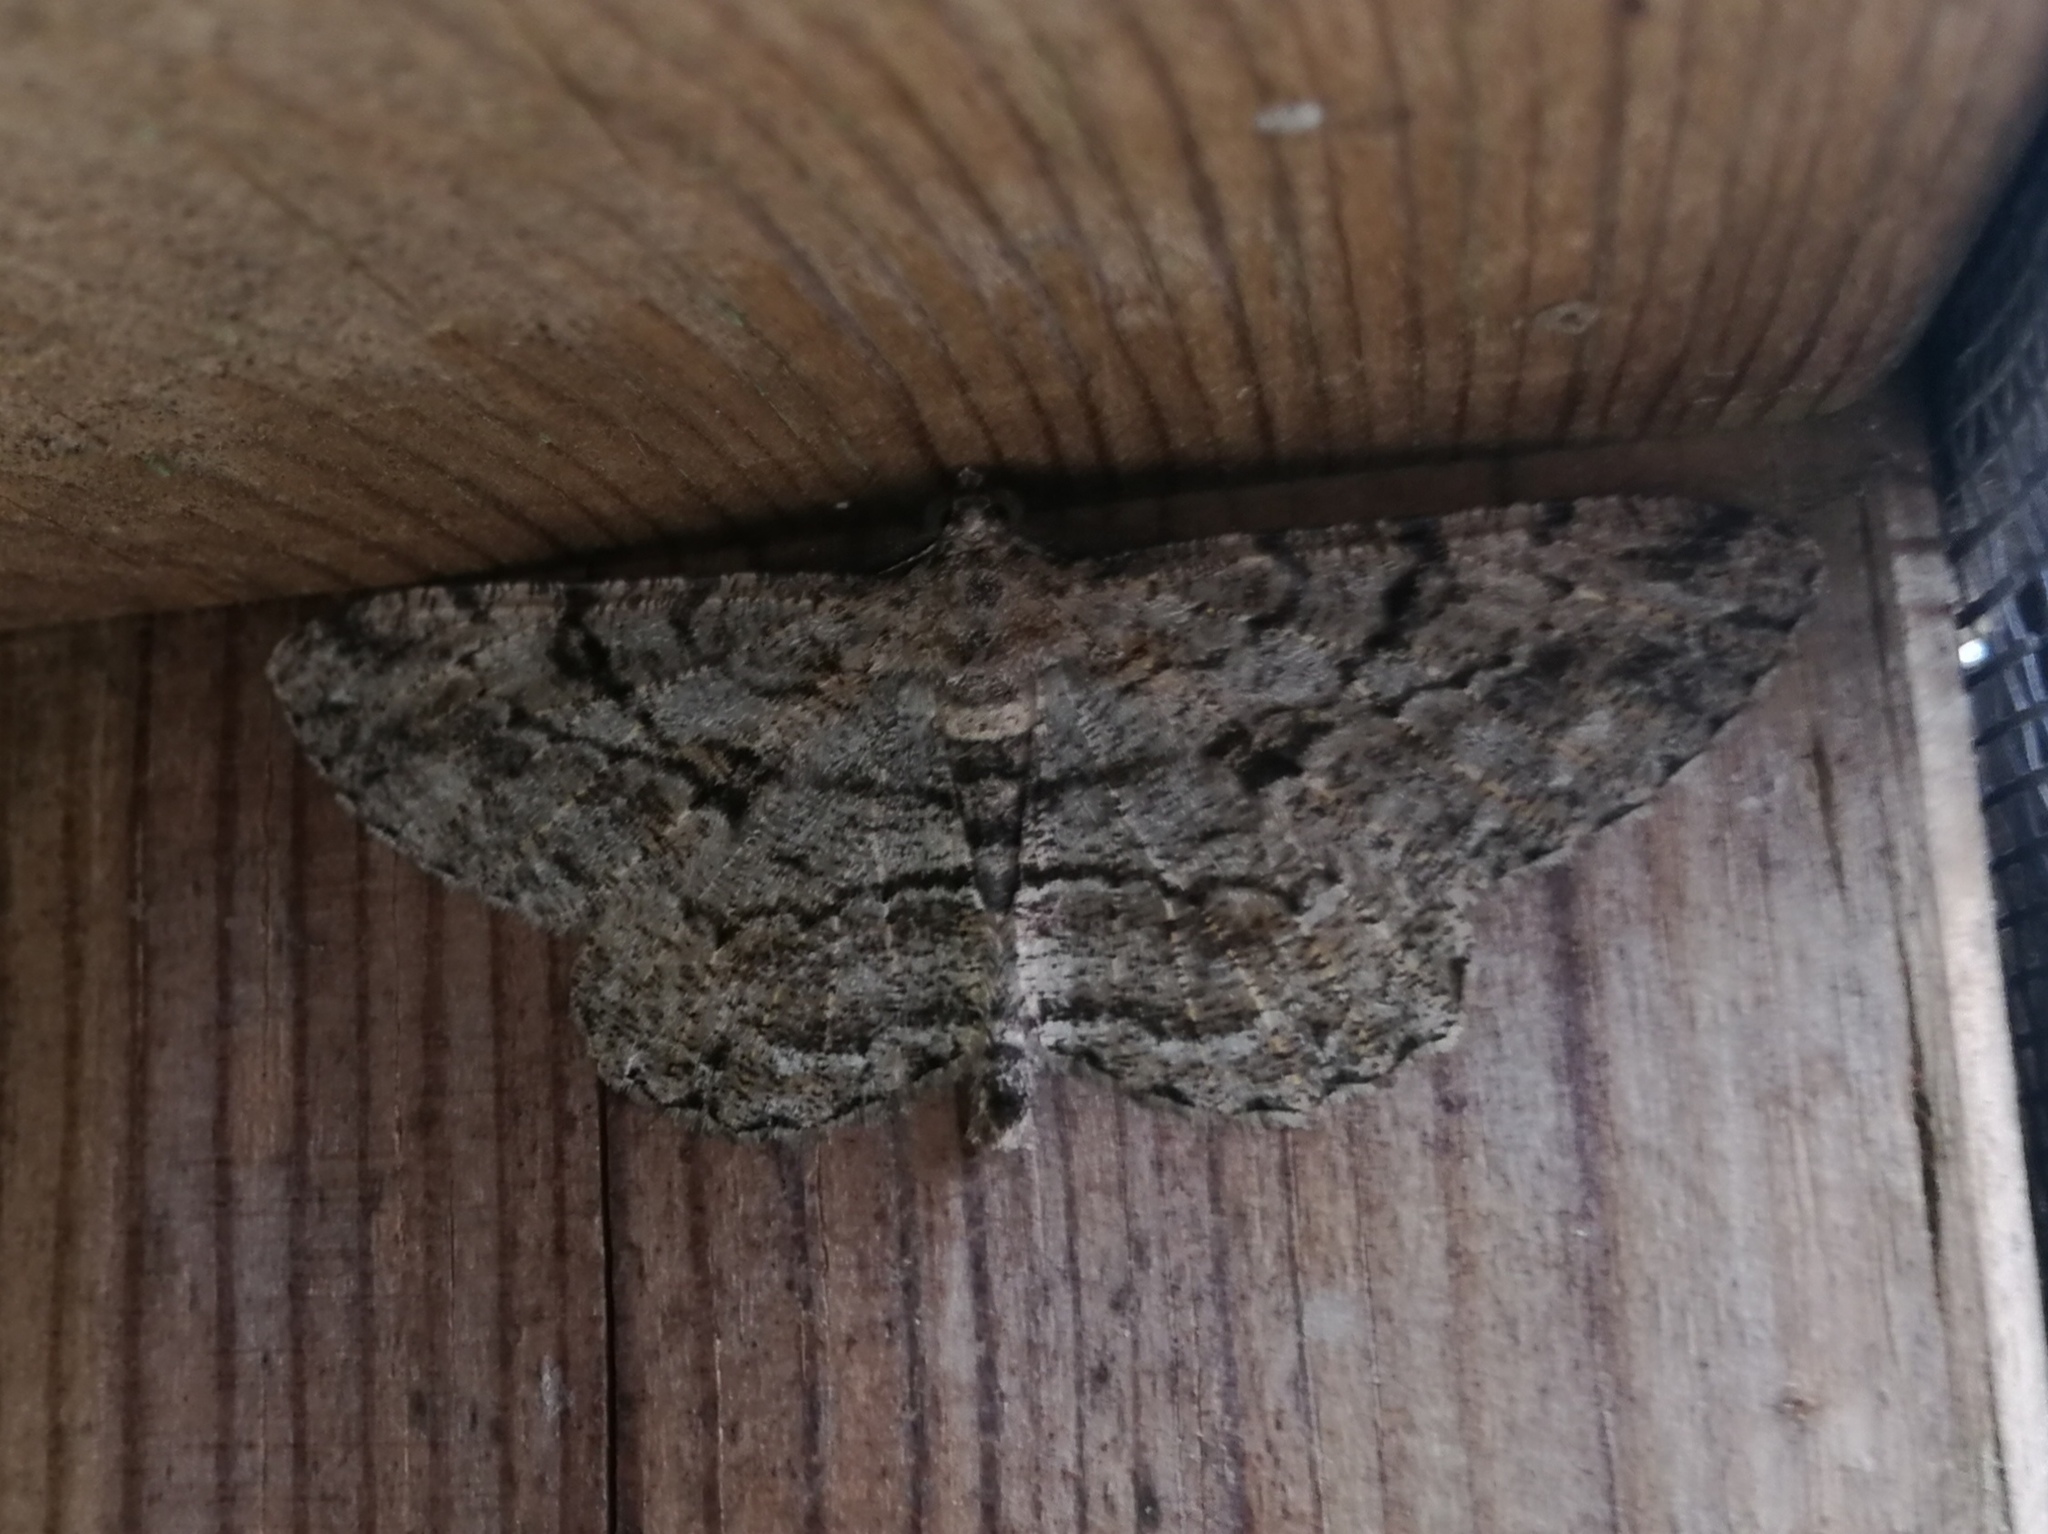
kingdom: Animalia
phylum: Arthropoda
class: Insecta
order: Lepidoptera
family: Geometridae
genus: Peribatodes
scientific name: Peribatodes rhomboidaria
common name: Willow beauty
